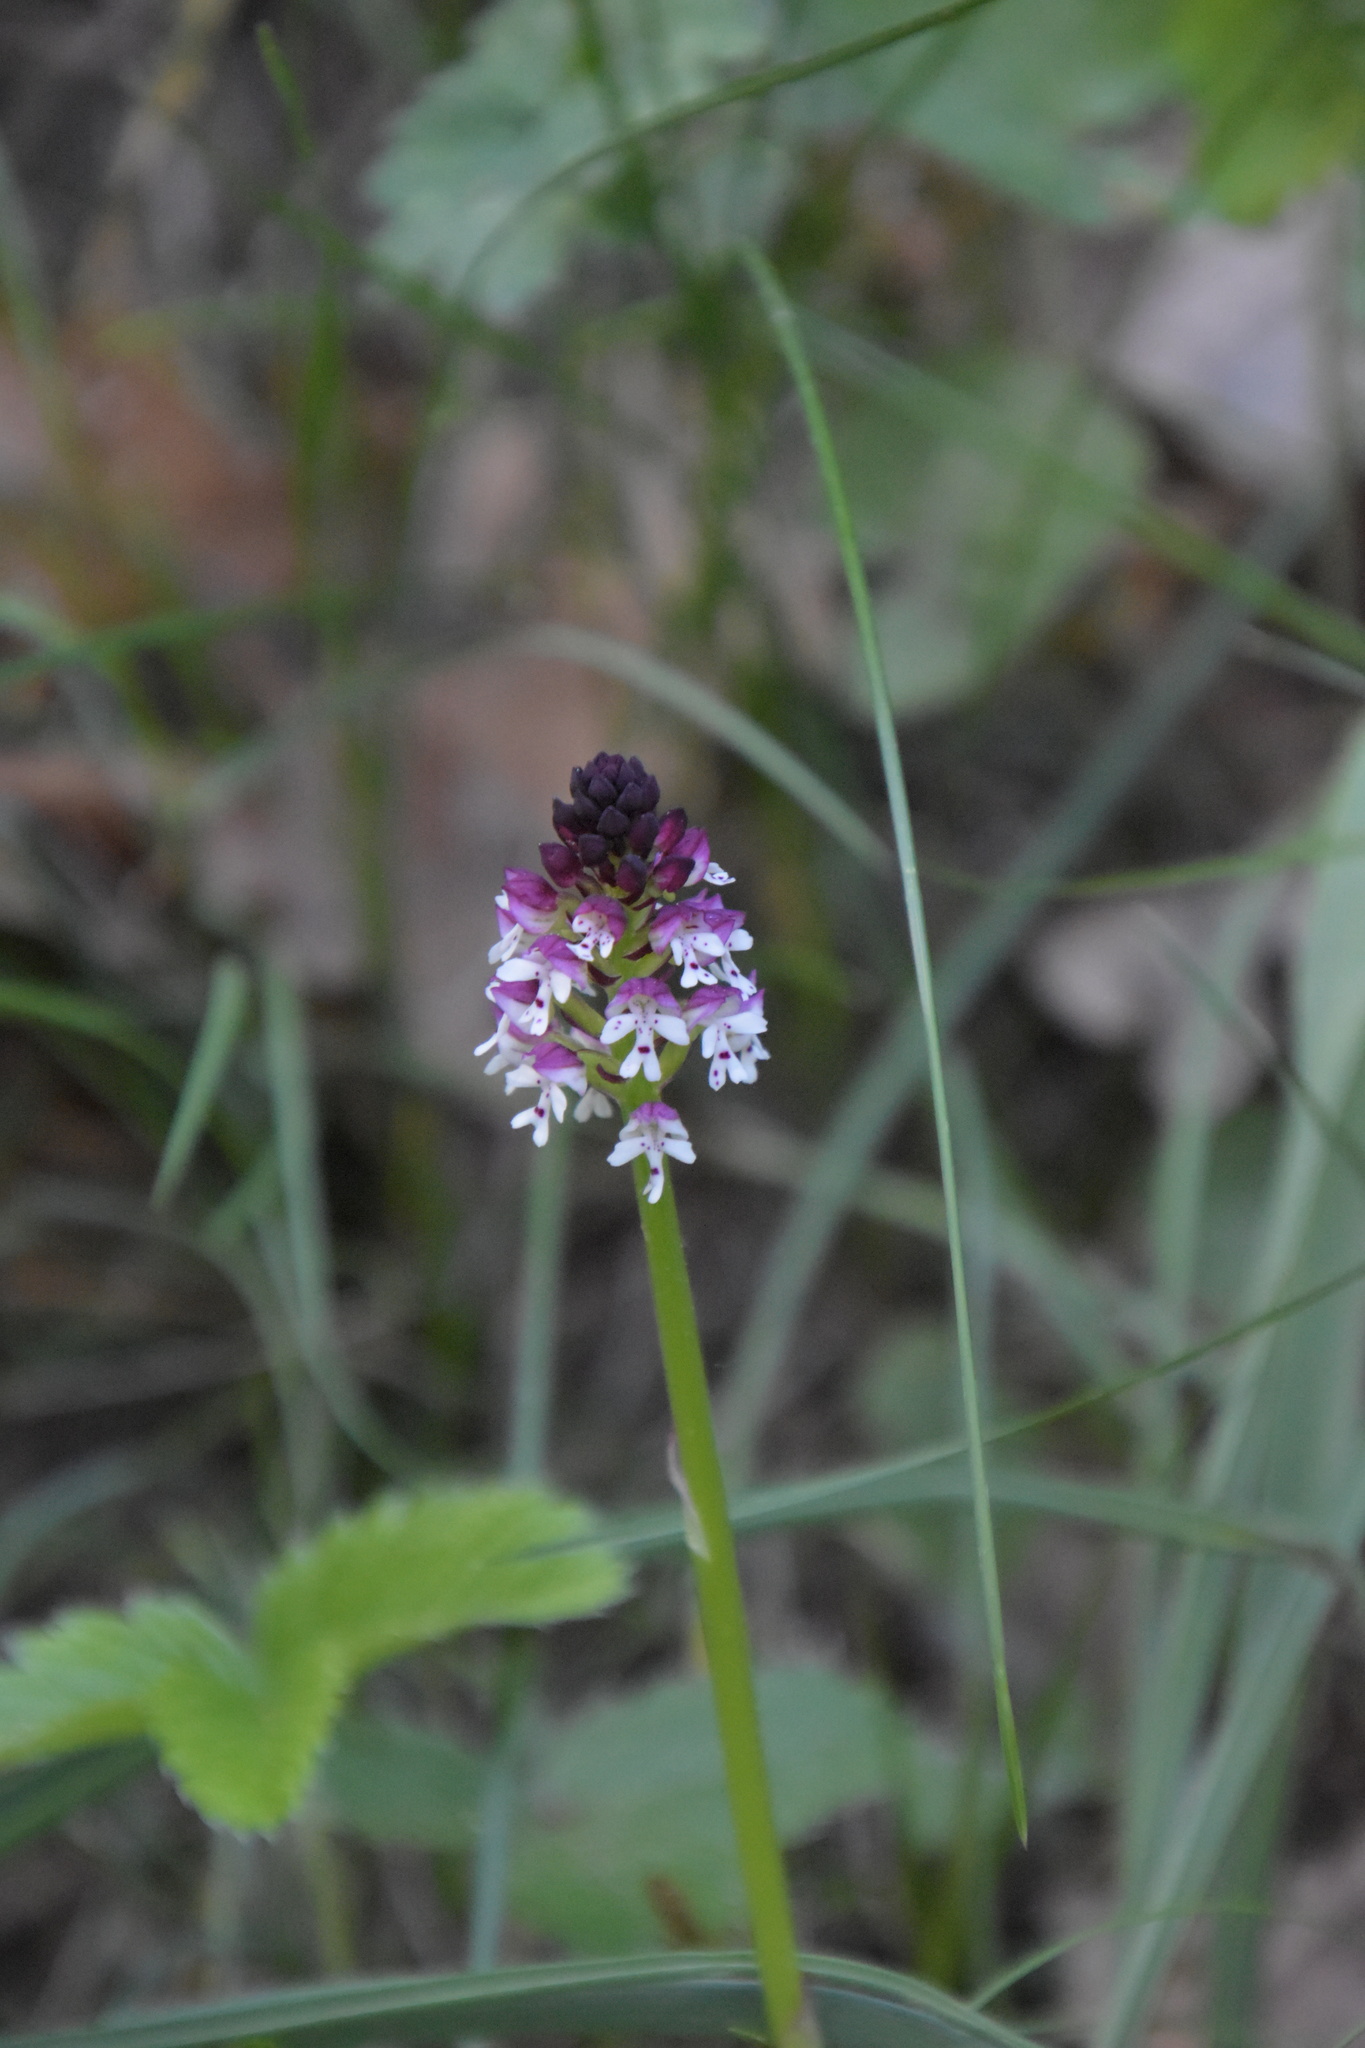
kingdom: Plantae
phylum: Tracheophyta
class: Liliopsida
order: Asparagales
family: Orchidaceae
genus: Neotinea
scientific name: Neotinea ustulata
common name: Burnt orchid
